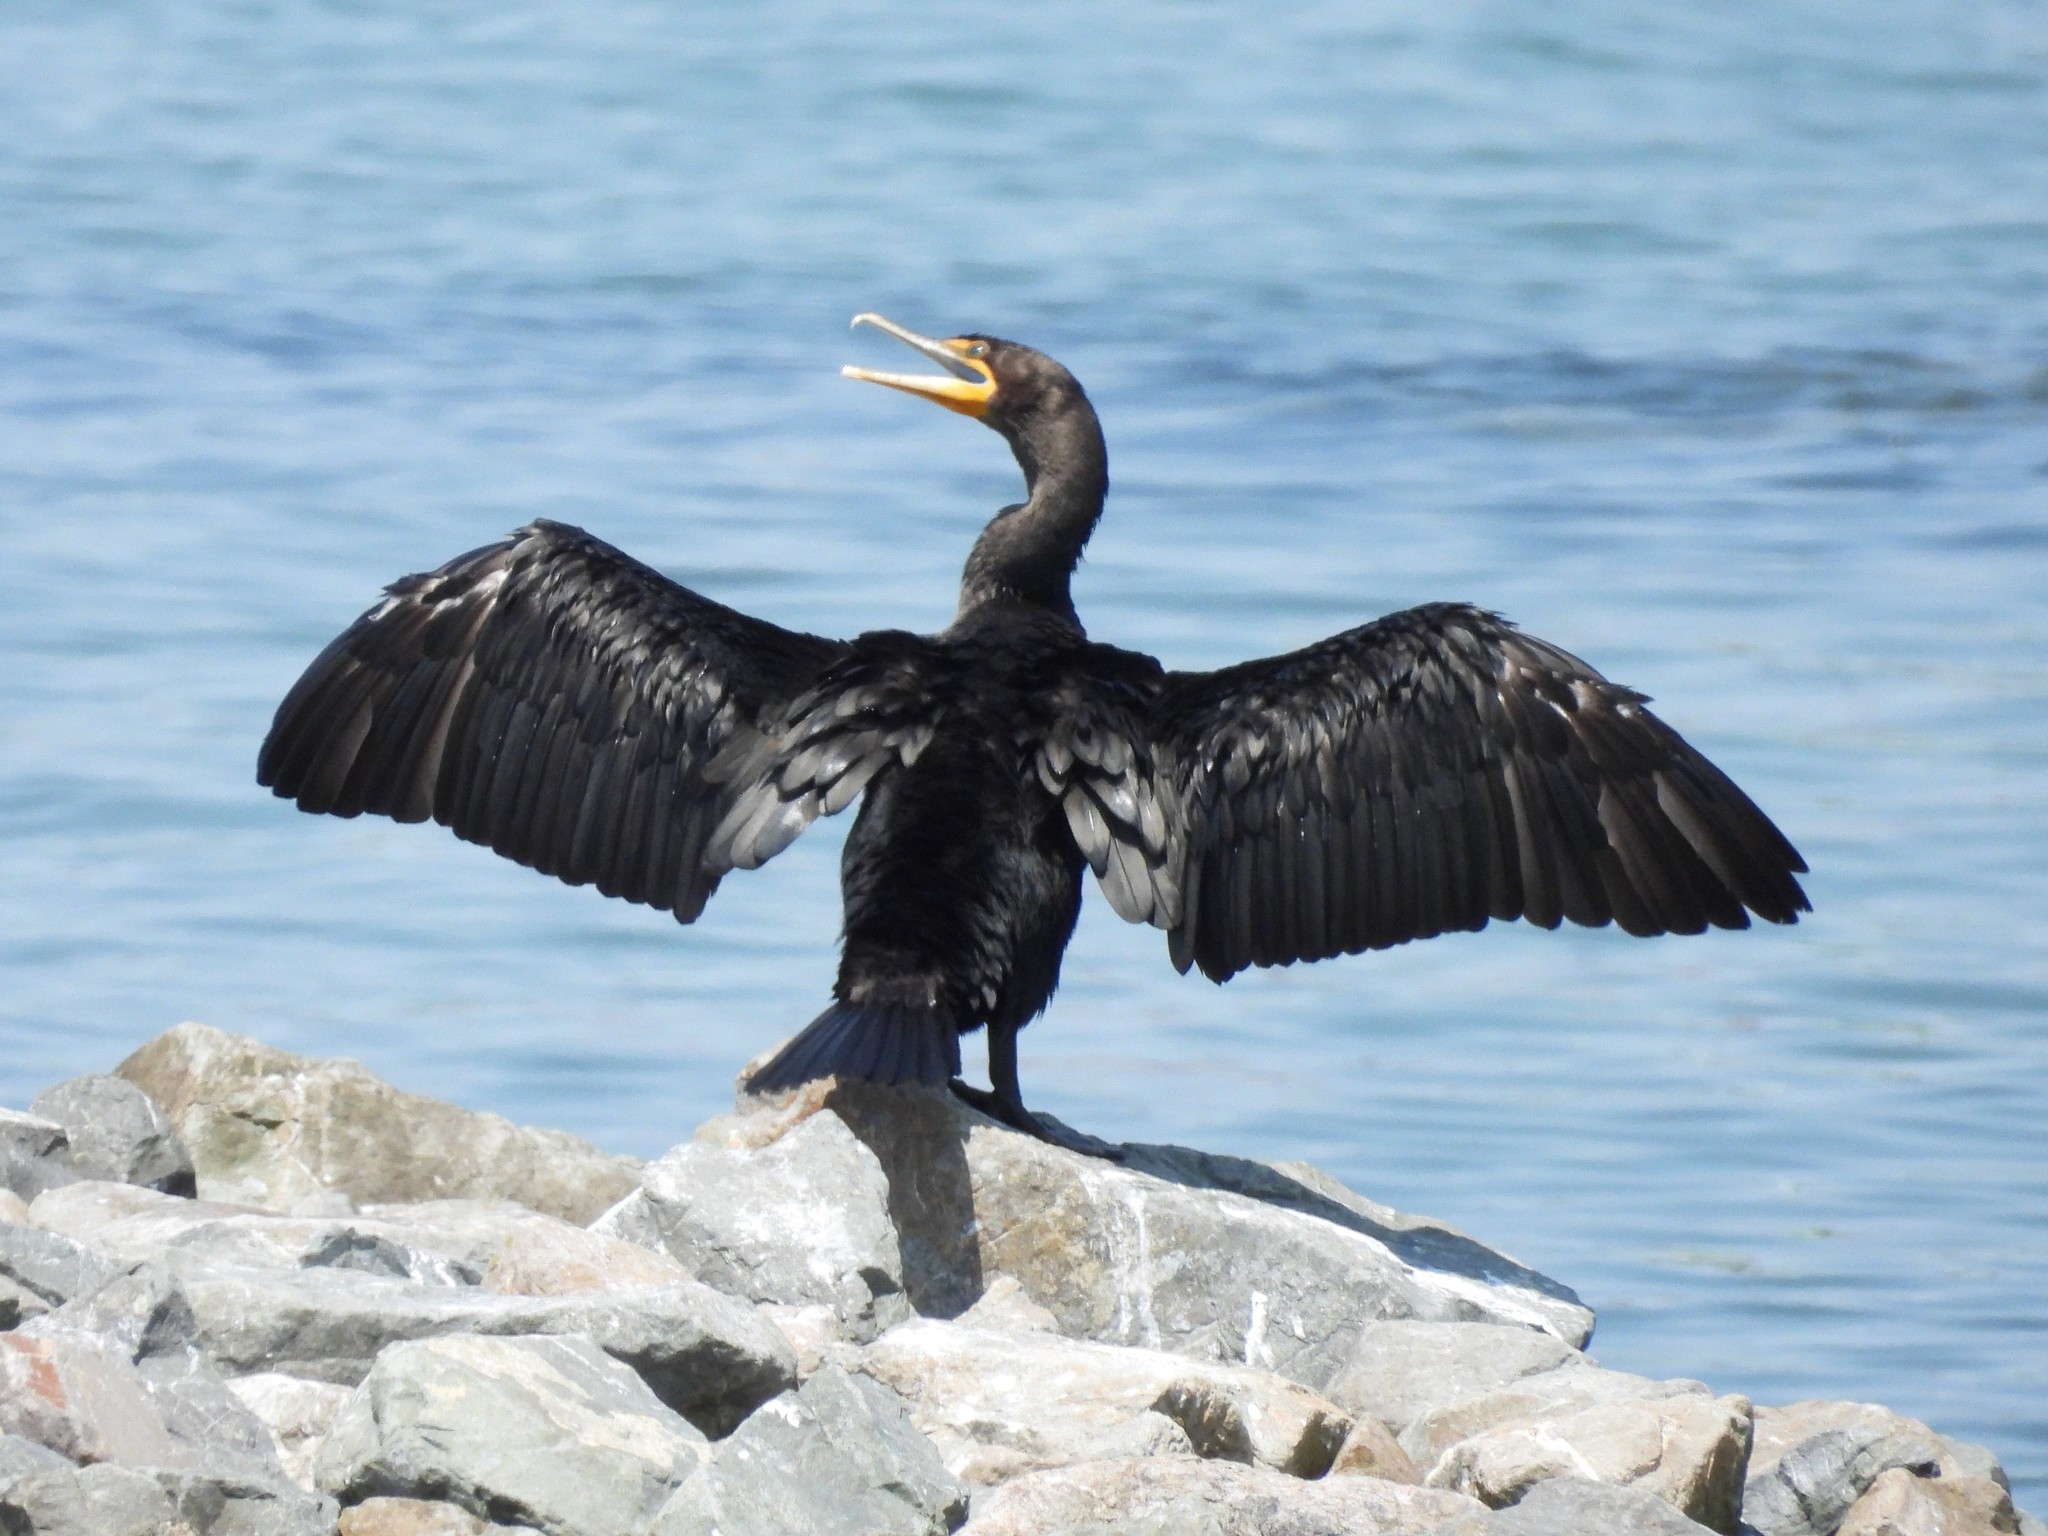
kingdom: Animalia
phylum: Chordata
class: Aves
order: Suliformes
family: Phalacrocoracidae
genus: Phalacrocorax
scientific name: Phalacrocorax auritus
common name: Double-crested cormorant
